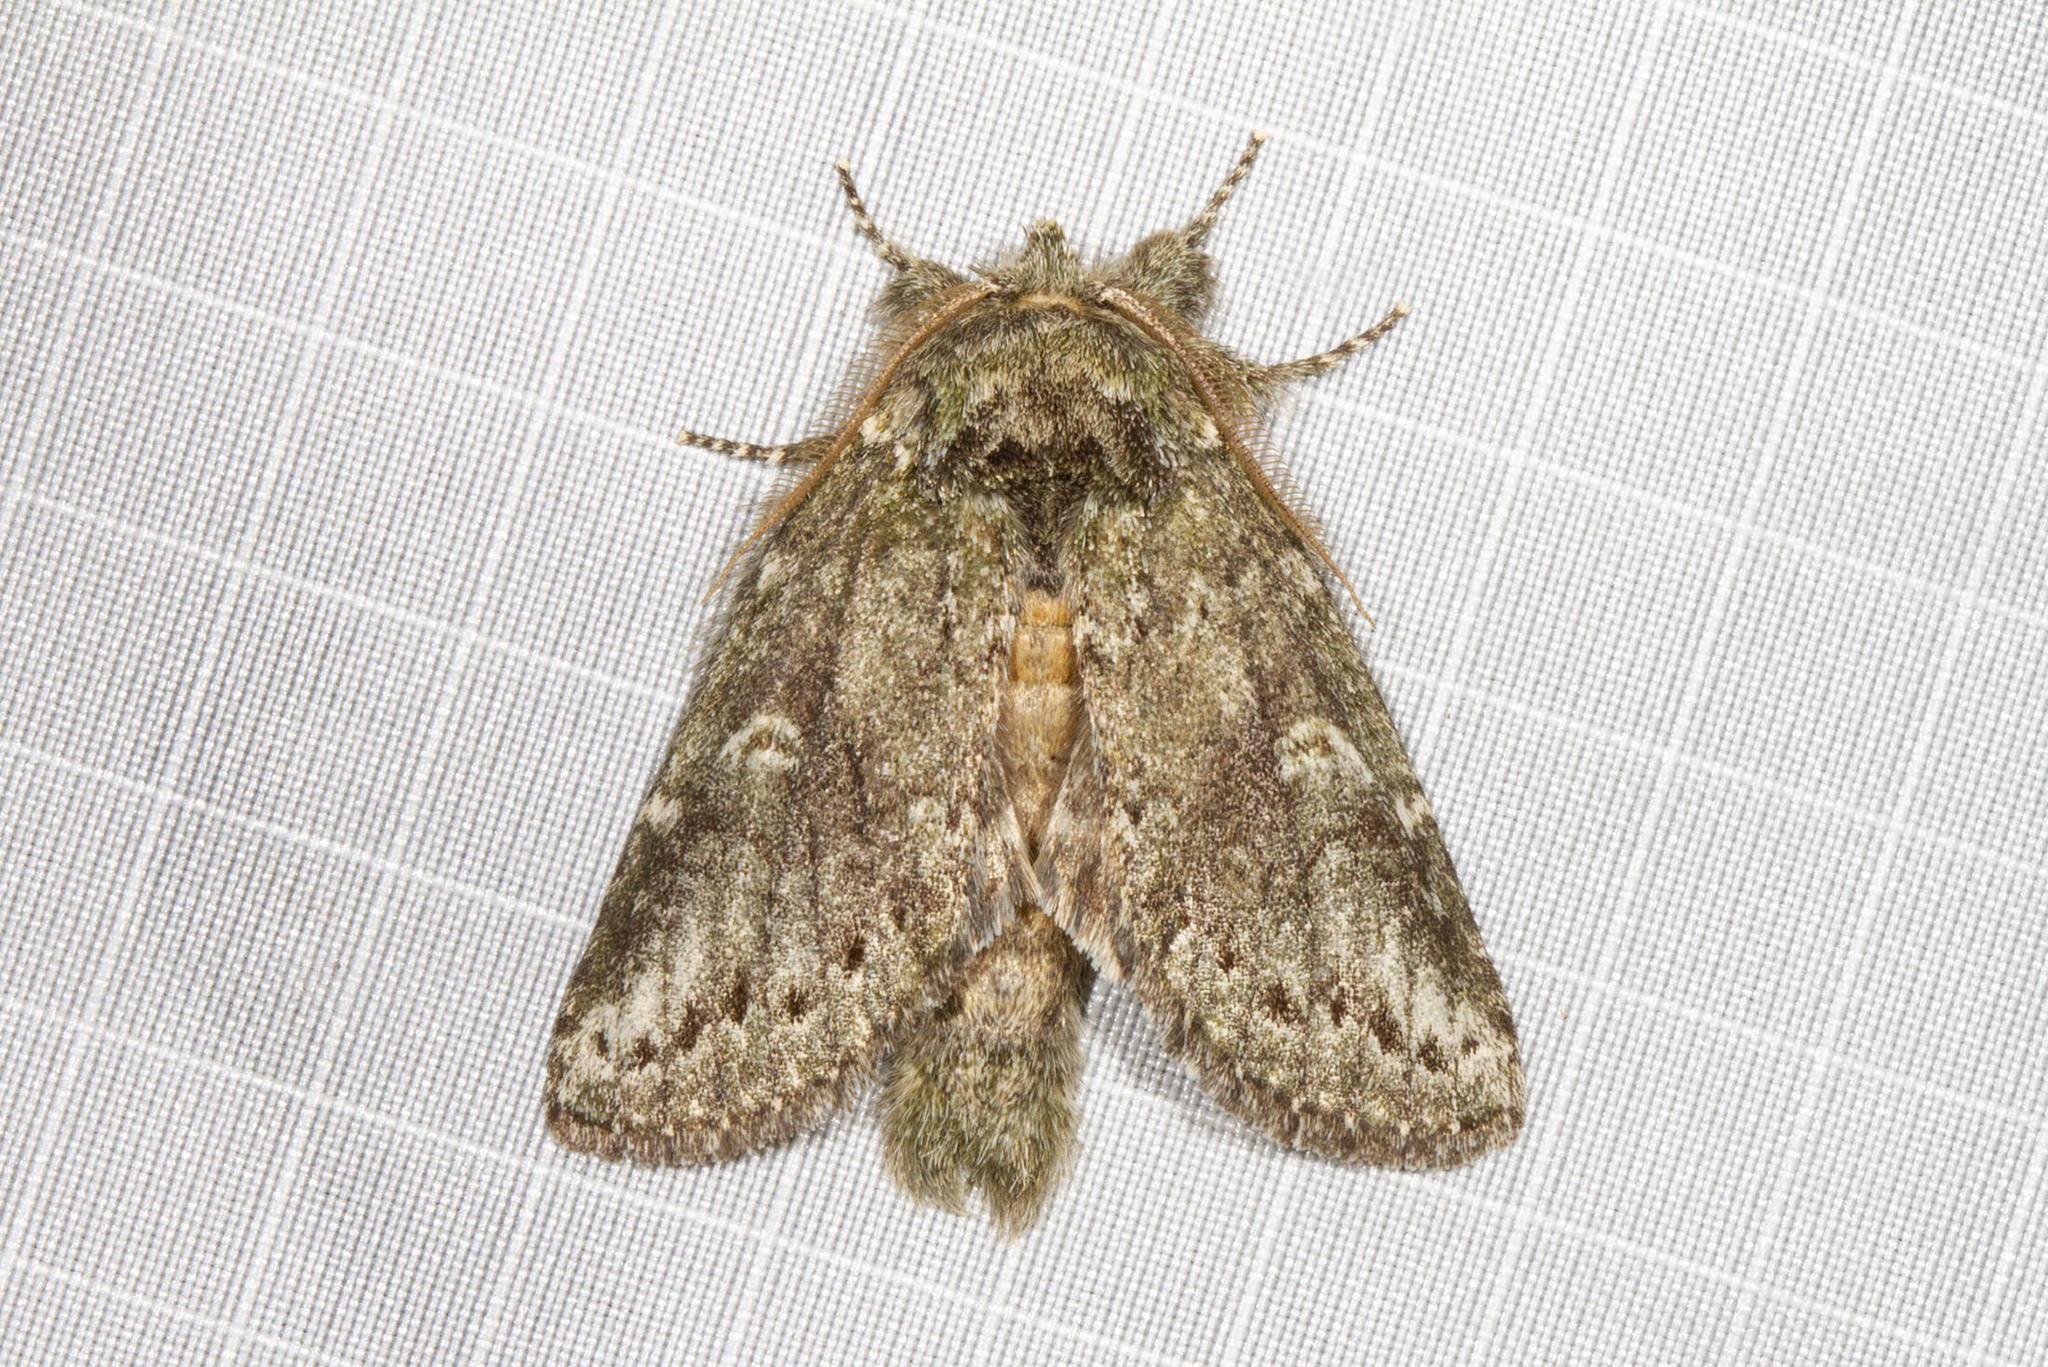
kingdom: Animalia
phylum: Arthropoda
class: Insecta
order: Lepidoptera
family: Notodontidae
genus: Disphragis
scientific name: Disphragis Cecrita guttivitta
